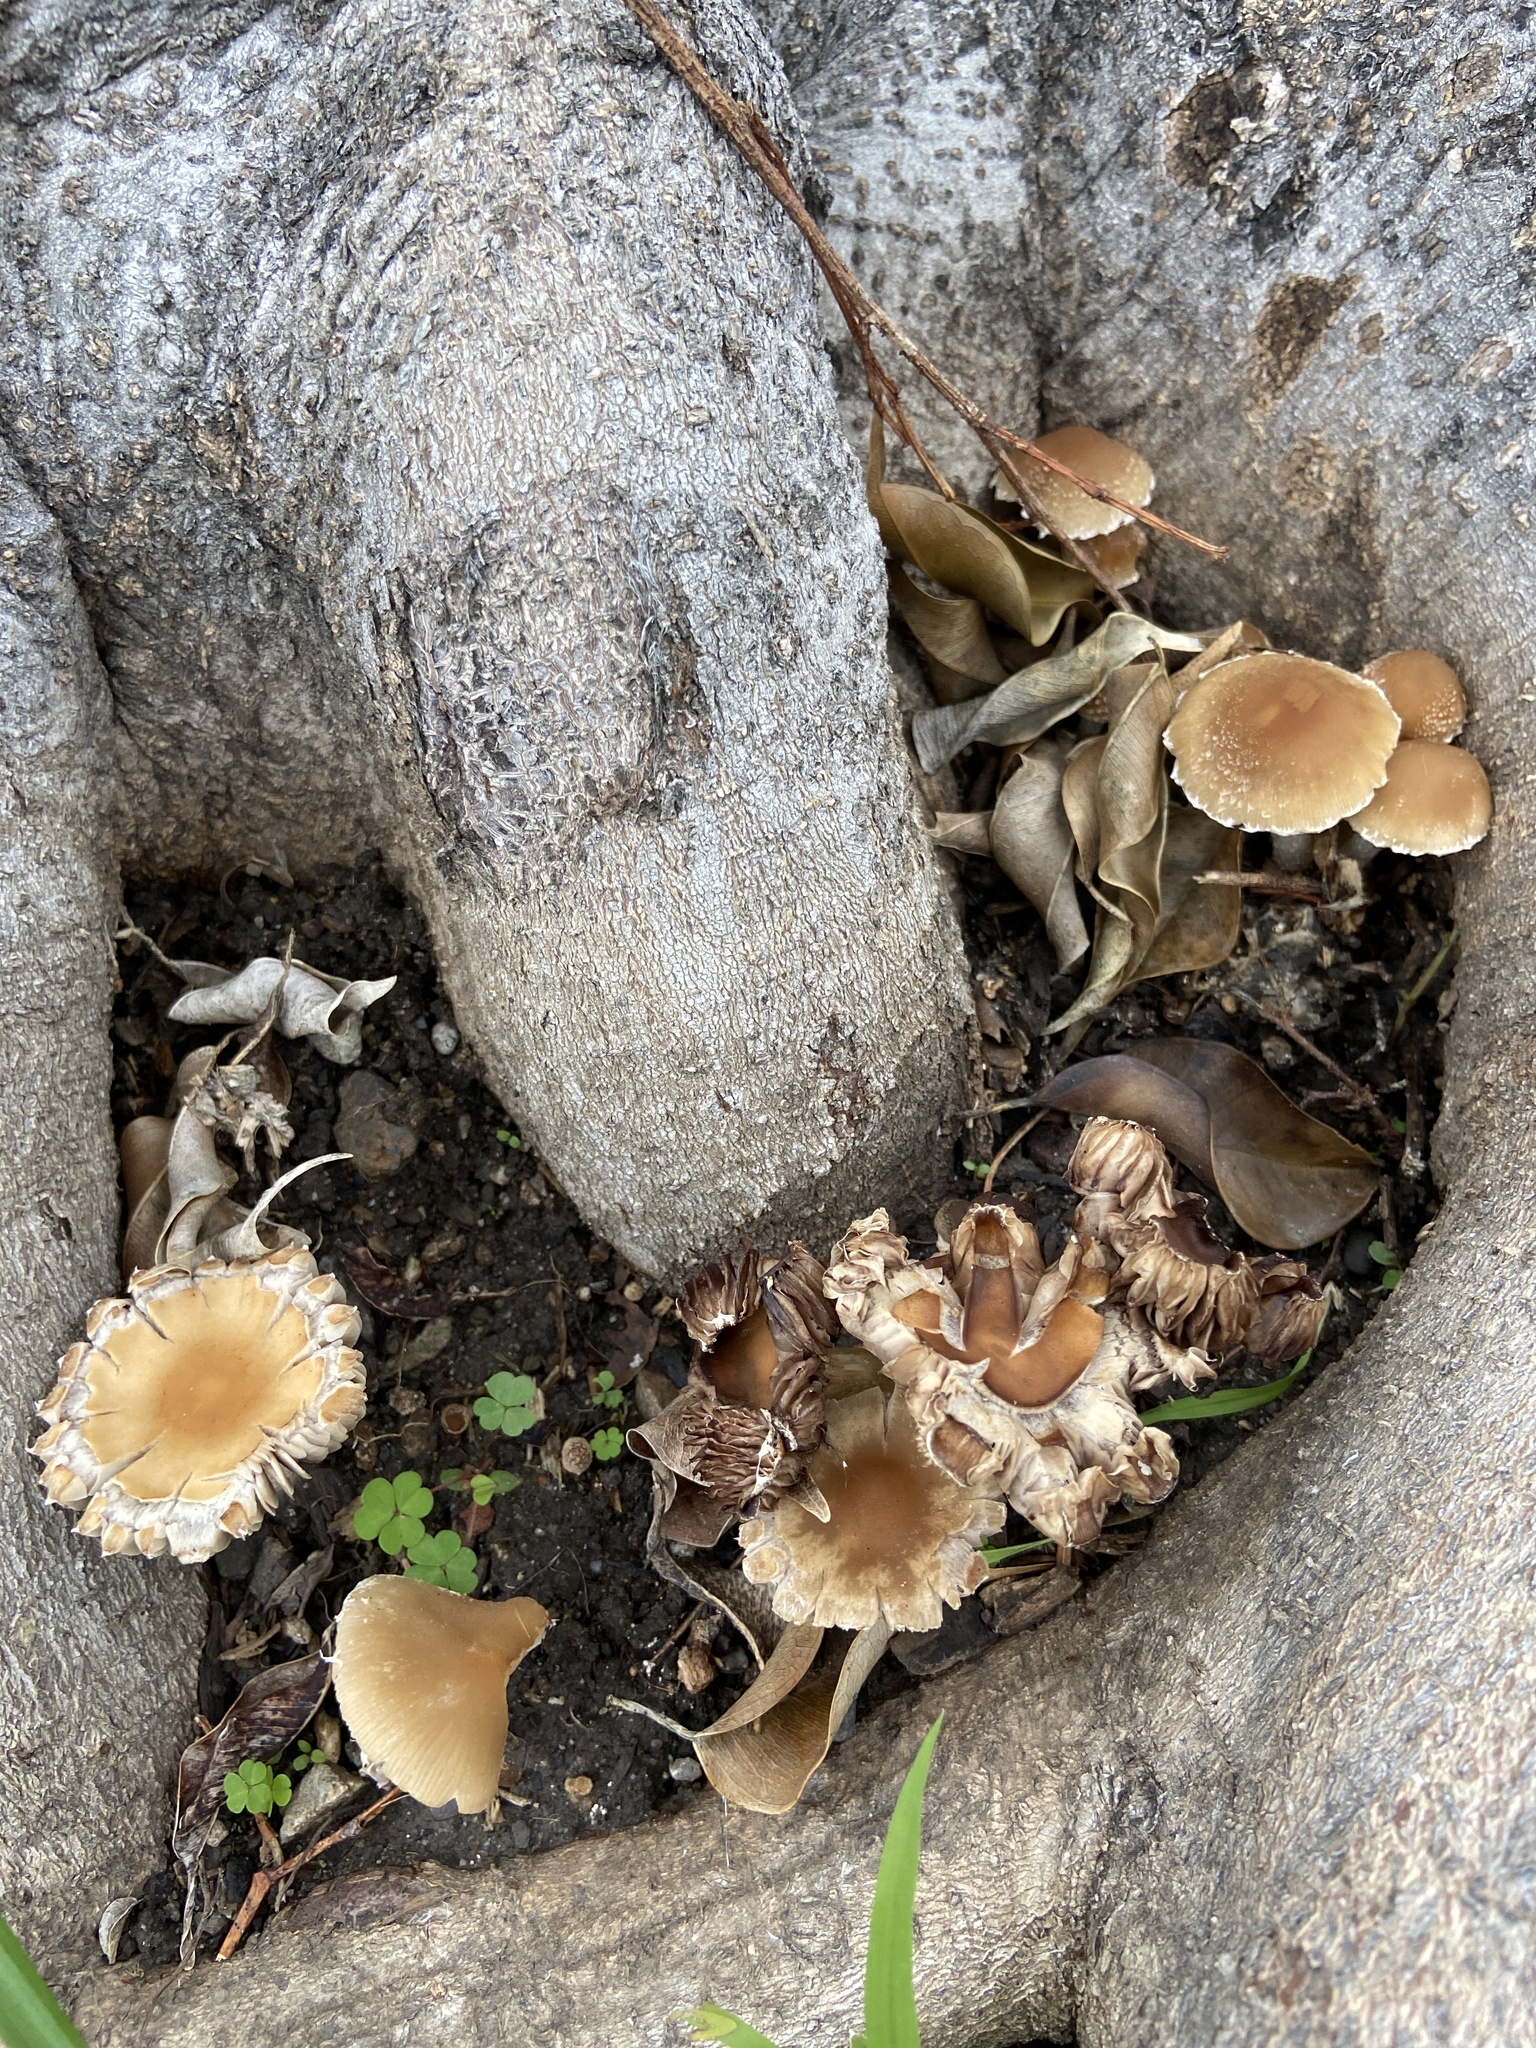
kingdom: Fungi
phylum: Basidiomycota
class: Agaricomycetes
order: Agaricales
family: Psathyrellaceae
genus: Candolleomyces
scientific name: Candolleomyces candolleanus
